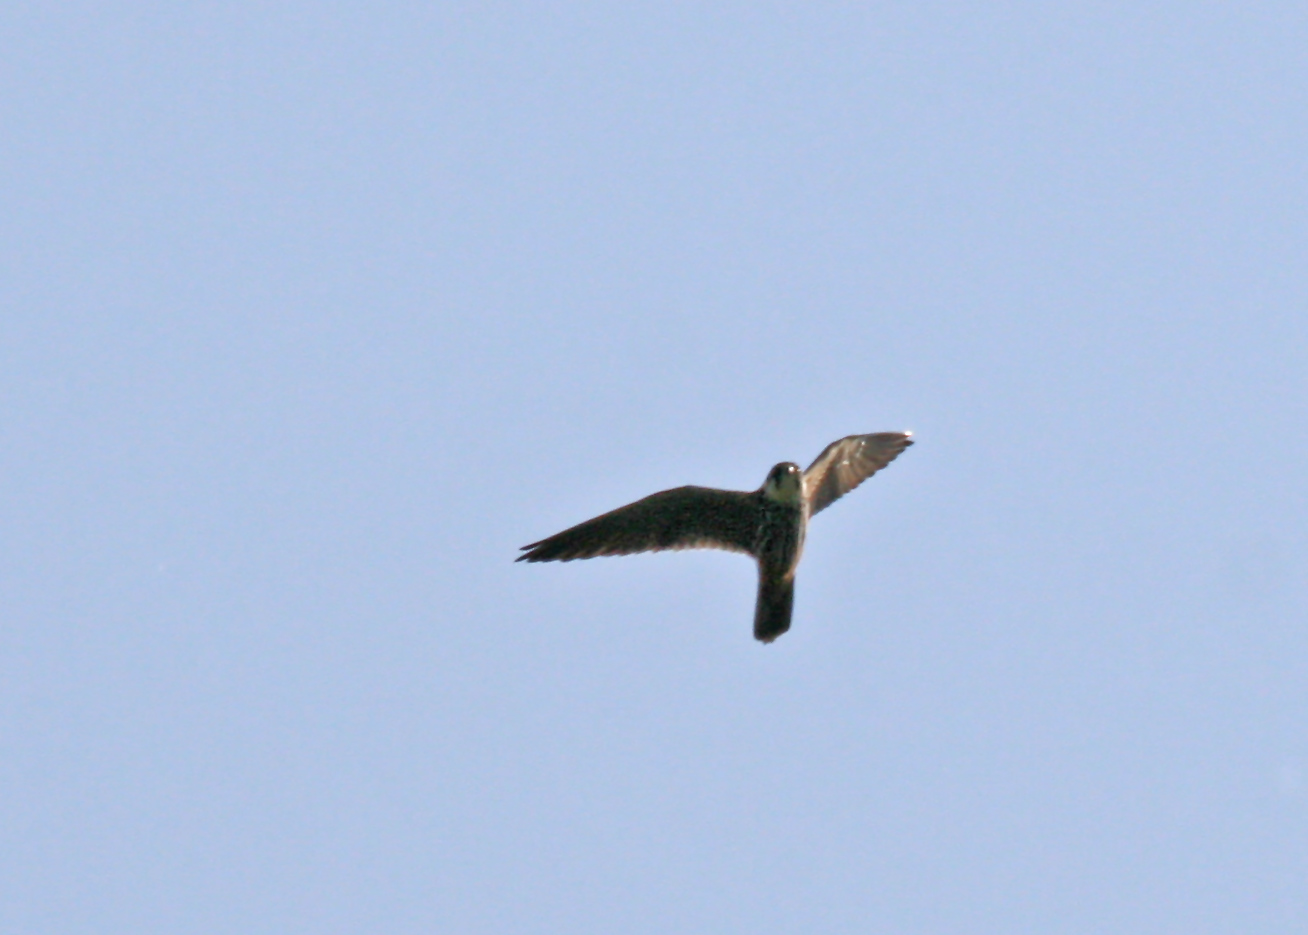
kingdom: Animalia
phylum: Chordata
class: Aves
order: Falconiformes
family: Falconidae
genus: Falco
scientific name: Falco subbuteo
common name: Eurasian hobby
